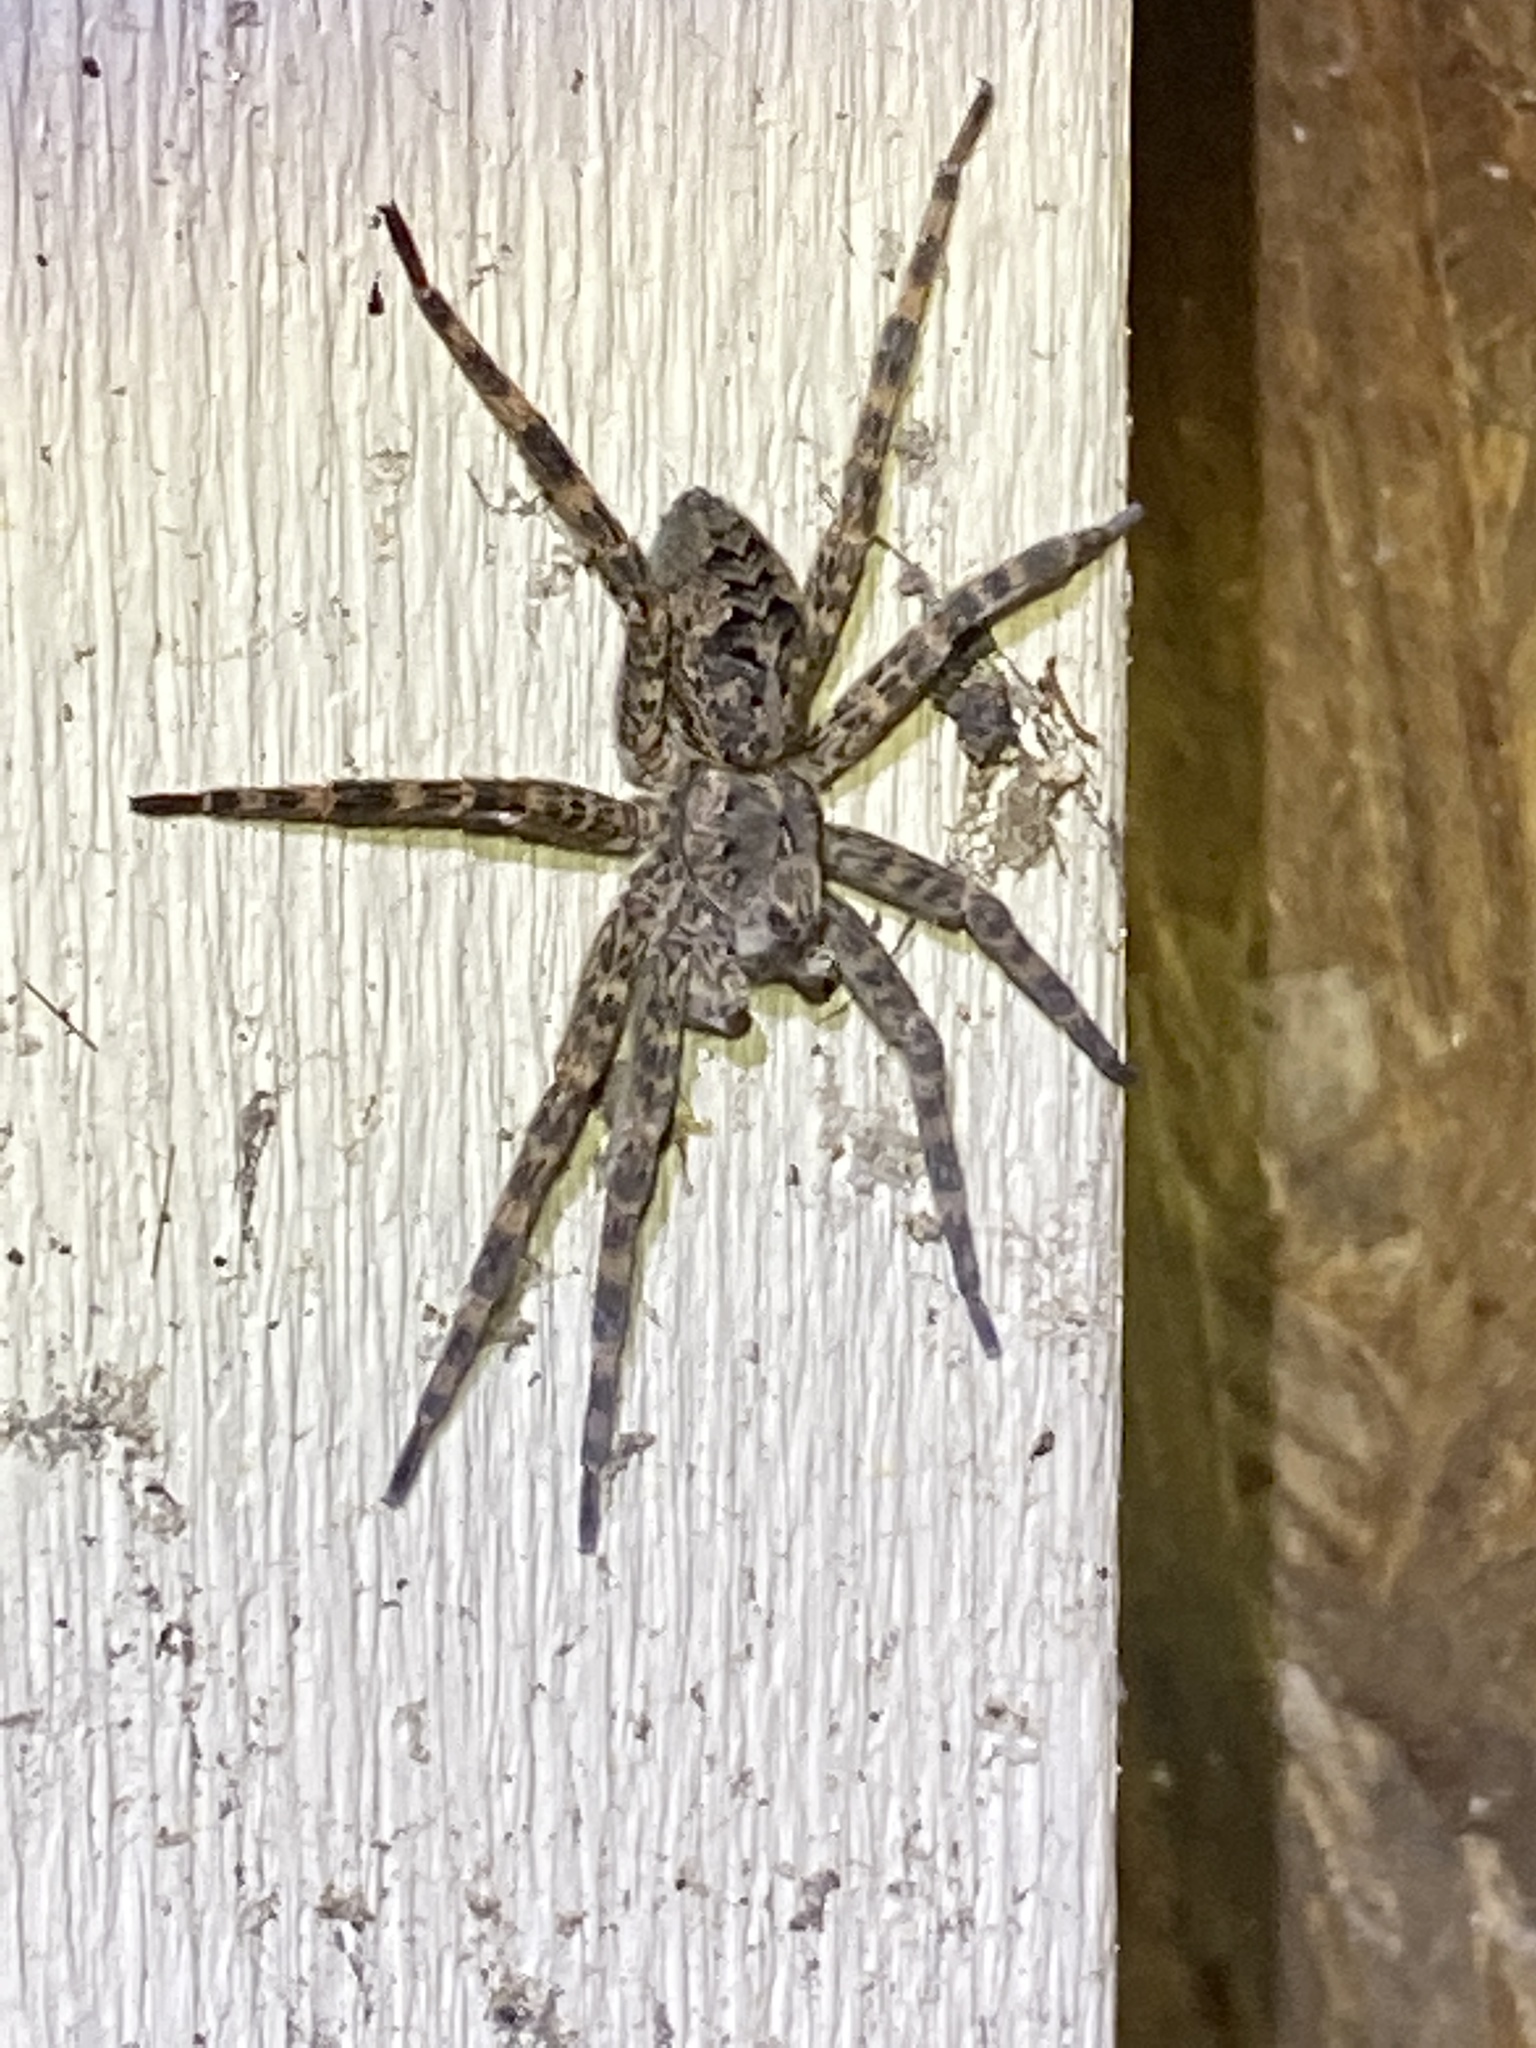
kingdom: Animalia
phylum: Arthropoda
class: Arachnida
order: Araneae
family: Pisauridae
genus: Dolomedes
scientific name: Dolomedes tenebrosus
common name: Dark fishing spider
